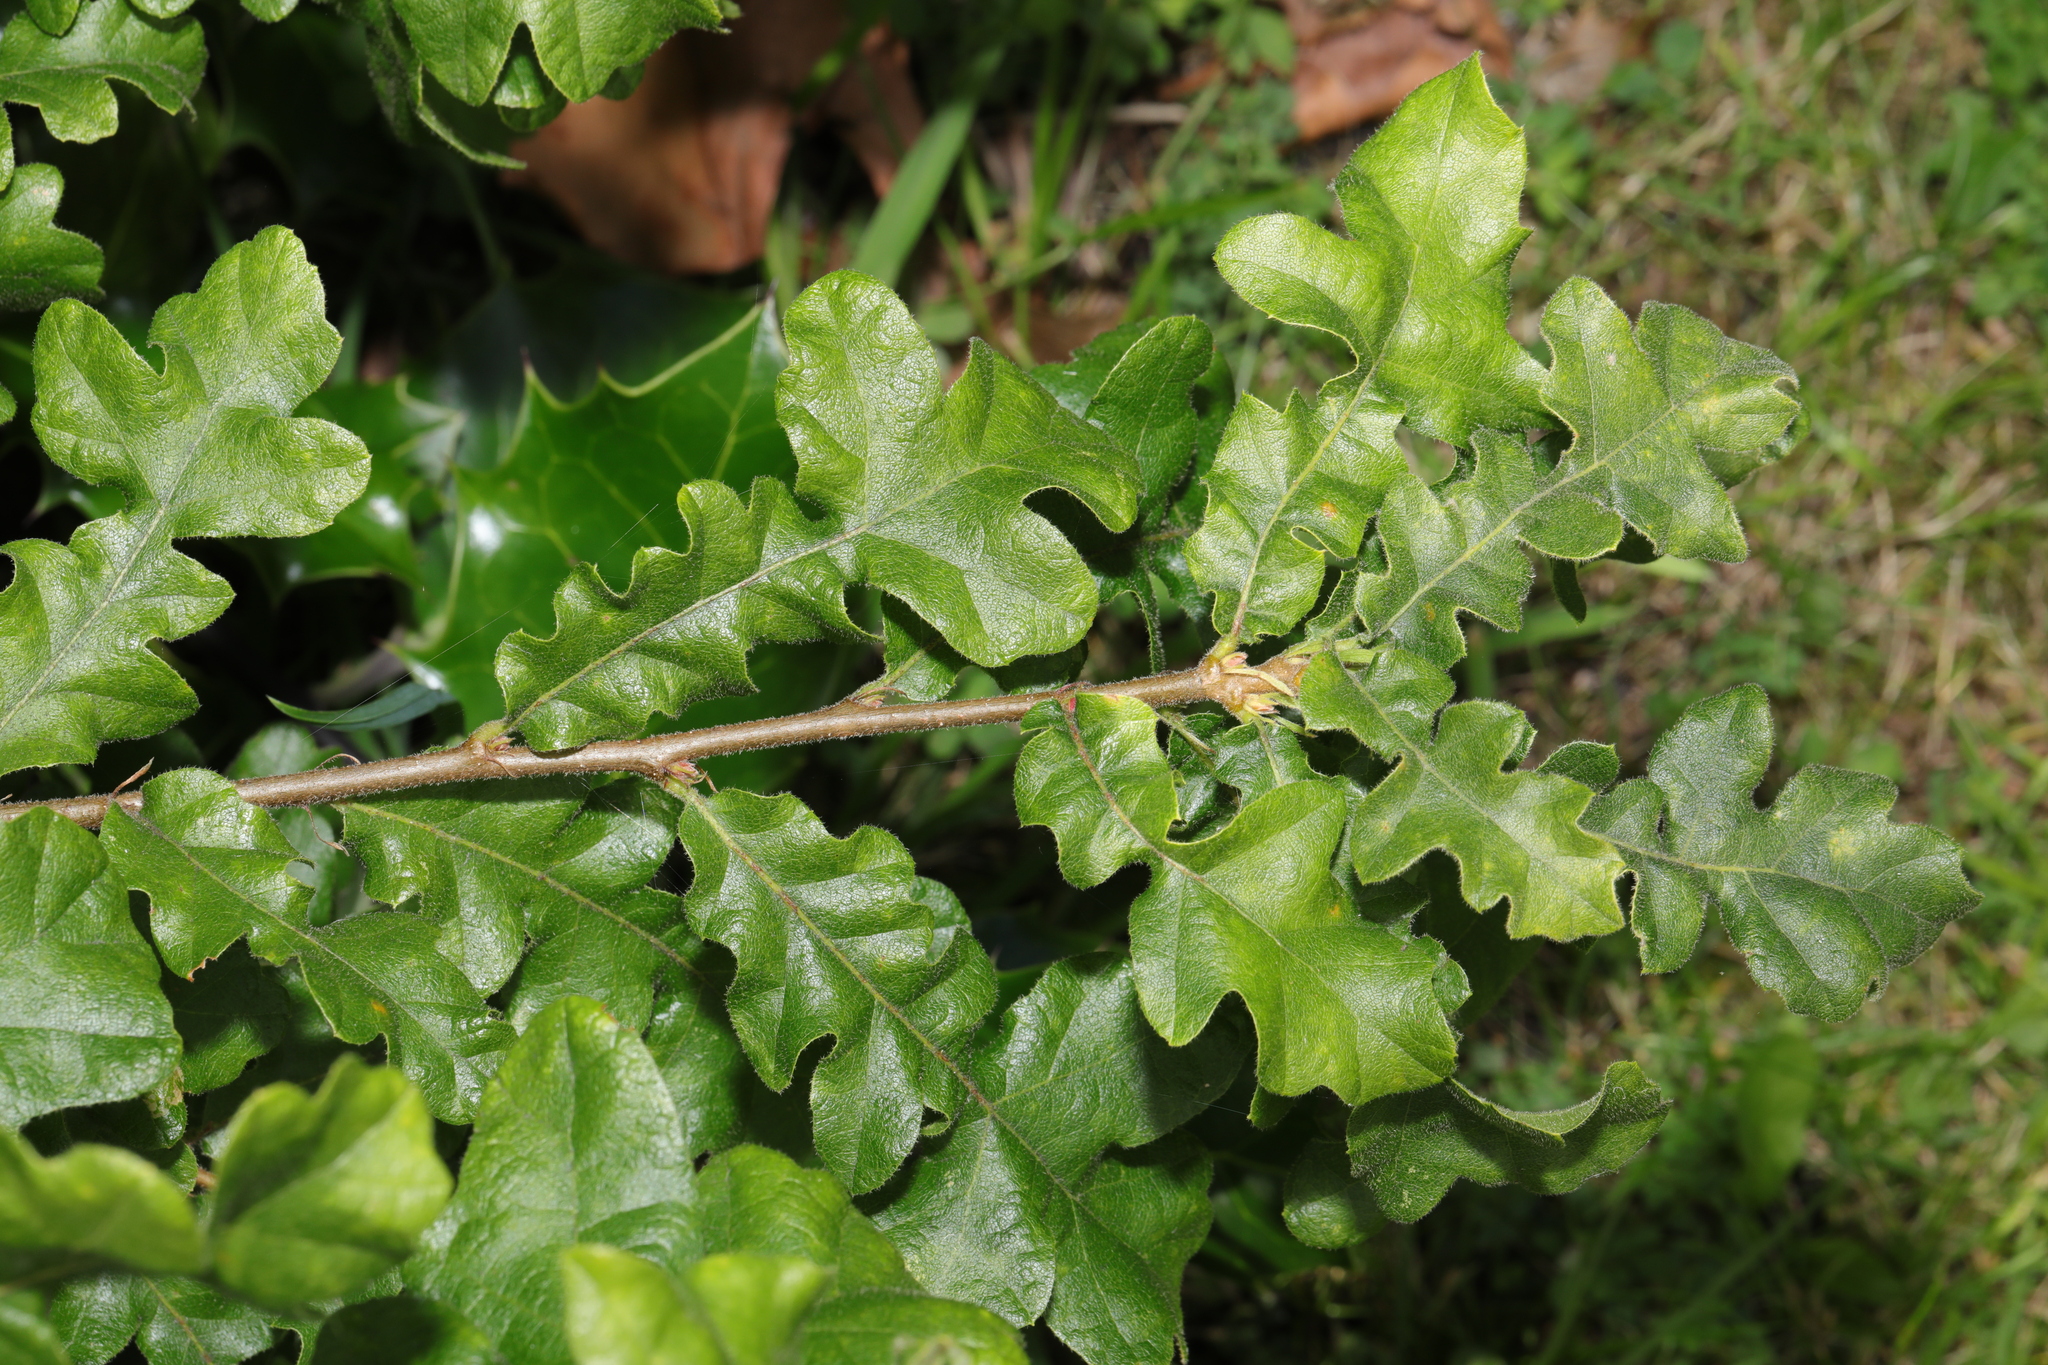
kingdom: Plantae
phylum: Tracheophyta
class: Magnoliopsida
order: Fagales
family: Fagaceae
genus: Quercus
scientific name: Quercus cerris
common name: Turkey oak
